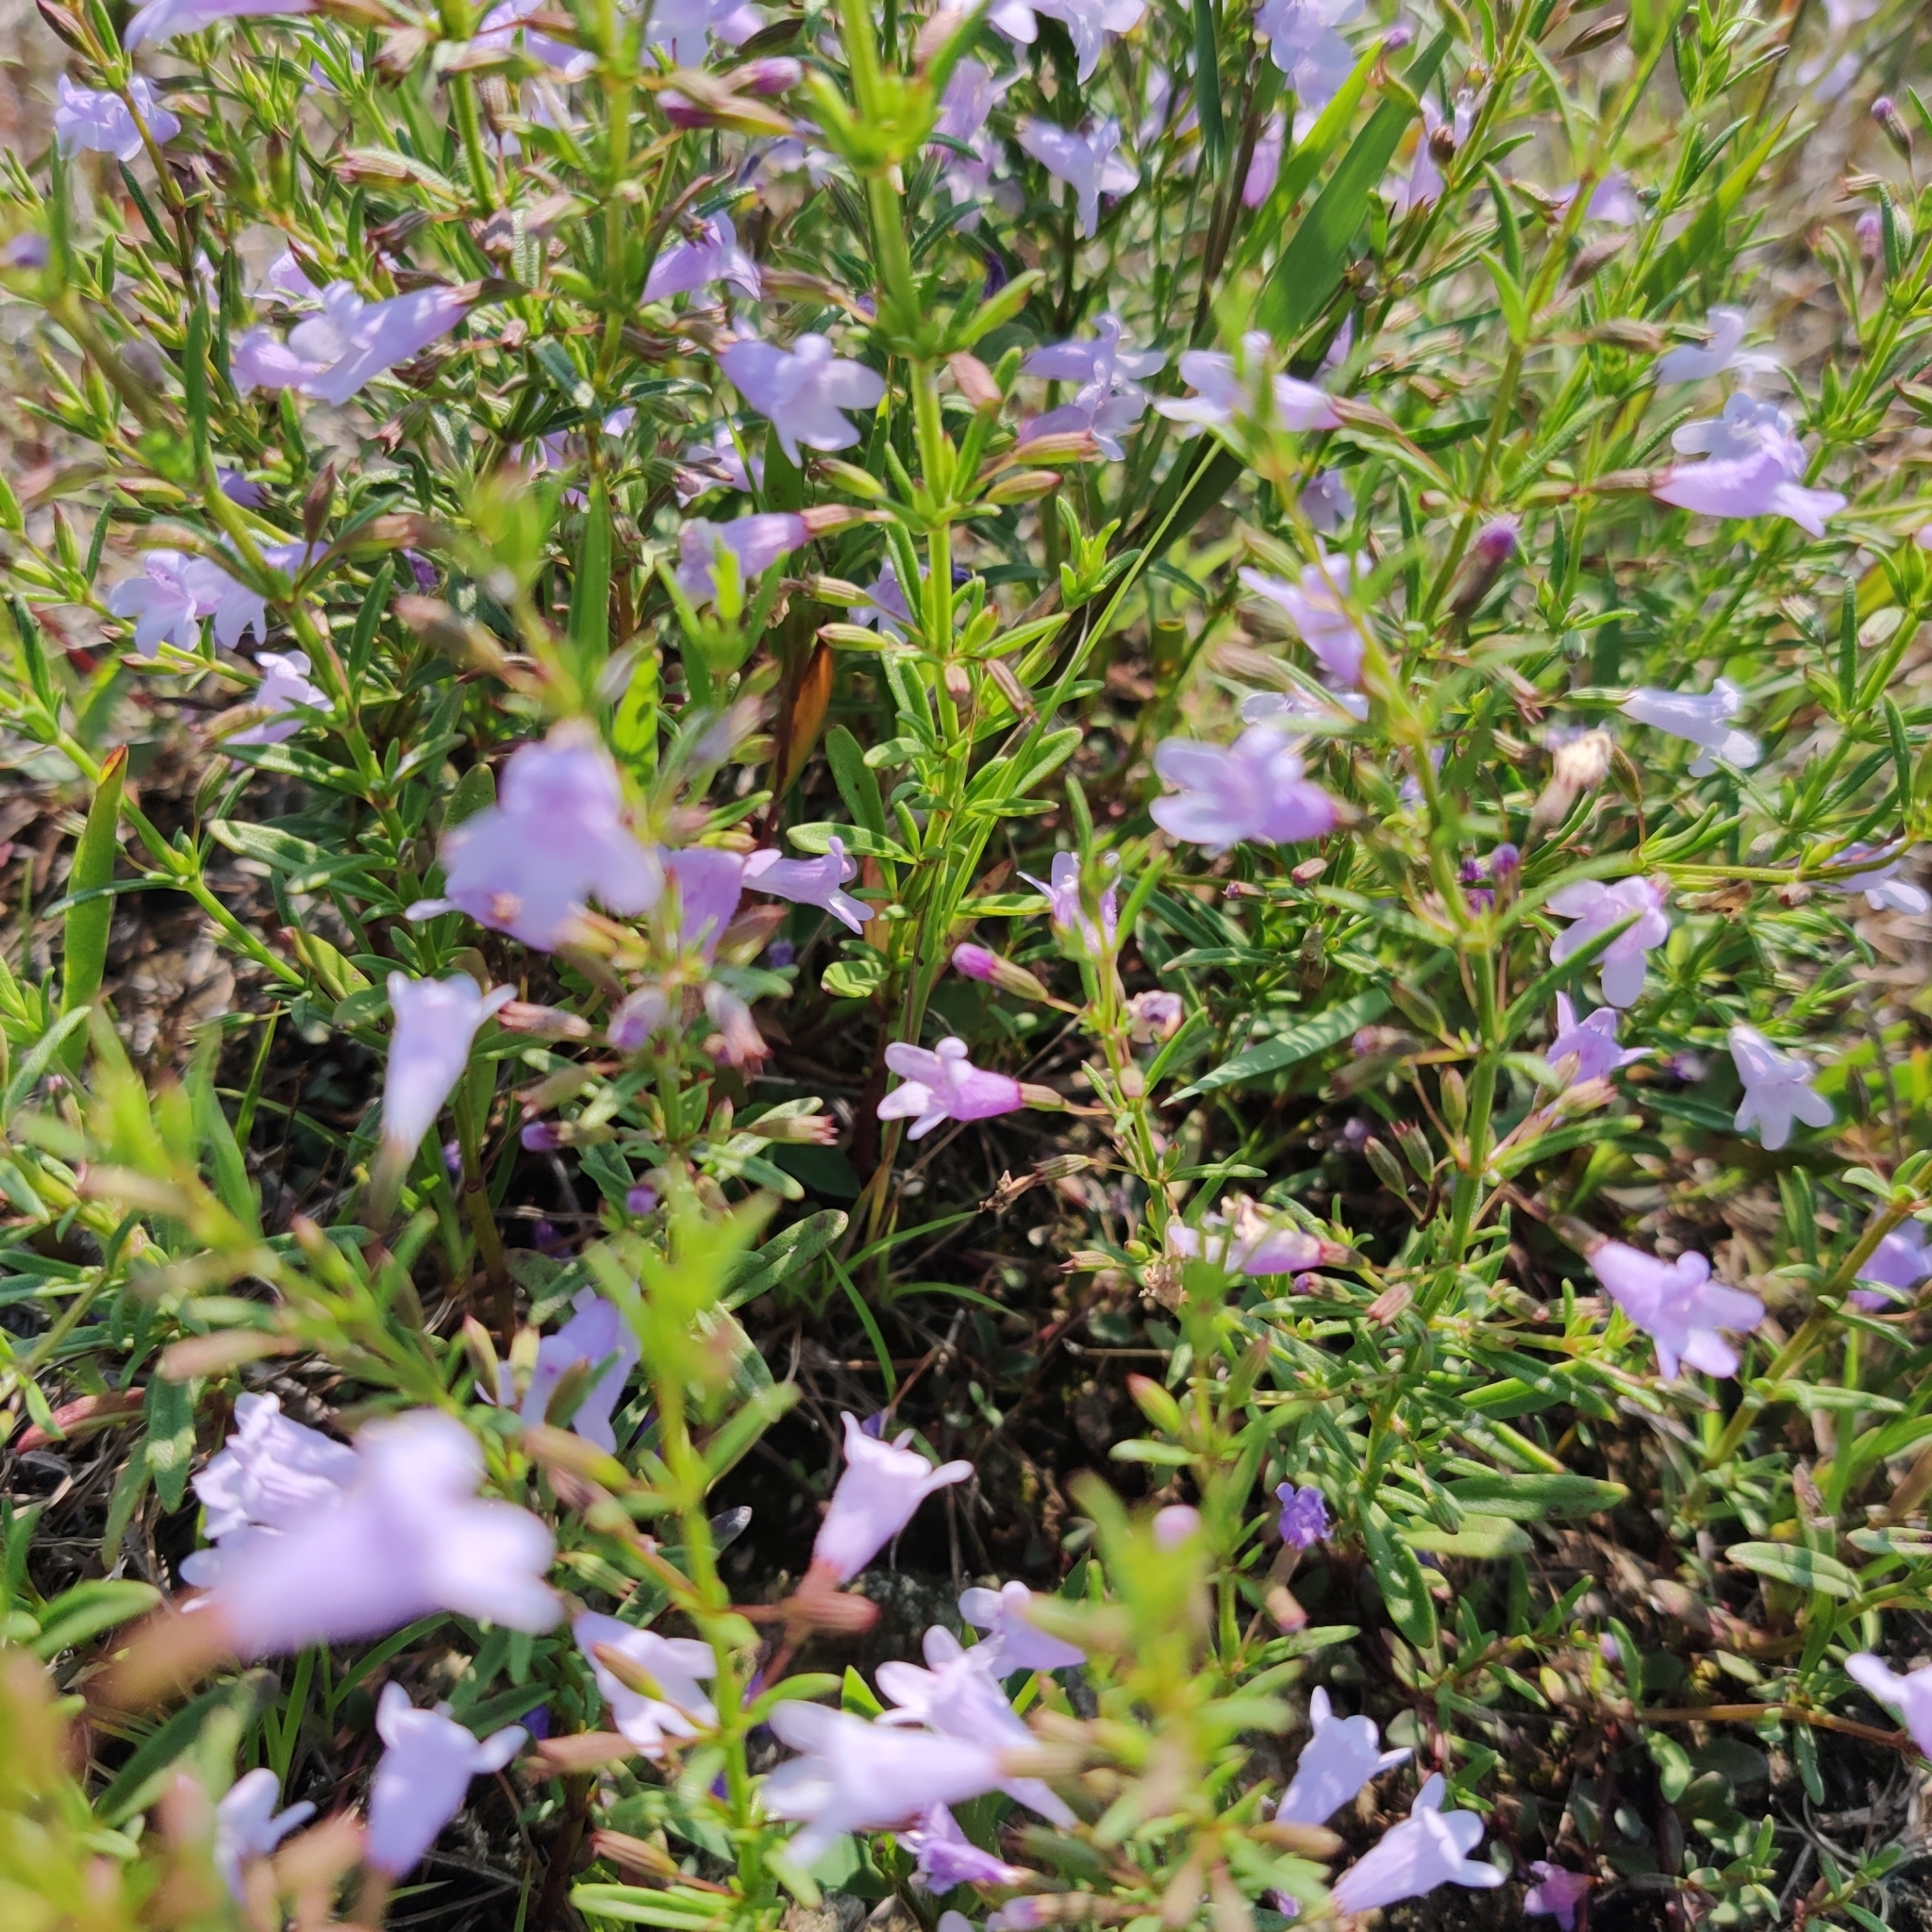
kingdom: Plantae
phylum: Tracheophyta
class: Magnoliopsida
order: Lamiales
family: Lamiaceae
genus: Clinopodium
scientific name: Clinopodium arkansanum
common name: Limestone calamint
